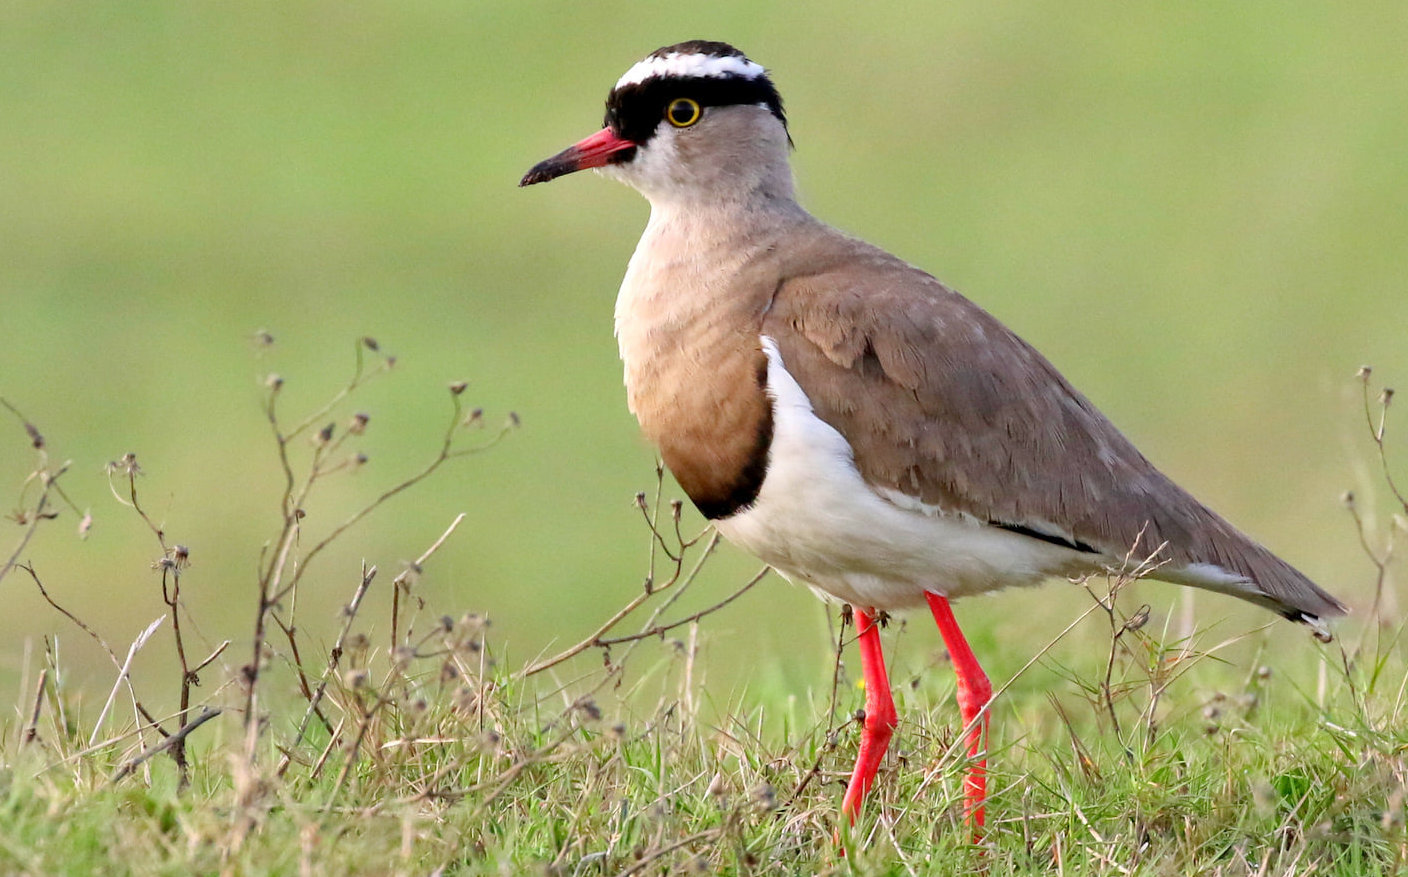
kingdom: Animalia
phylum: Chordata
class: Aves
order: Charadriiformes
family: Charadriidae
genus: Vanellus
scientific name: Vanellus coronatus
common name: Crowned lapwing
